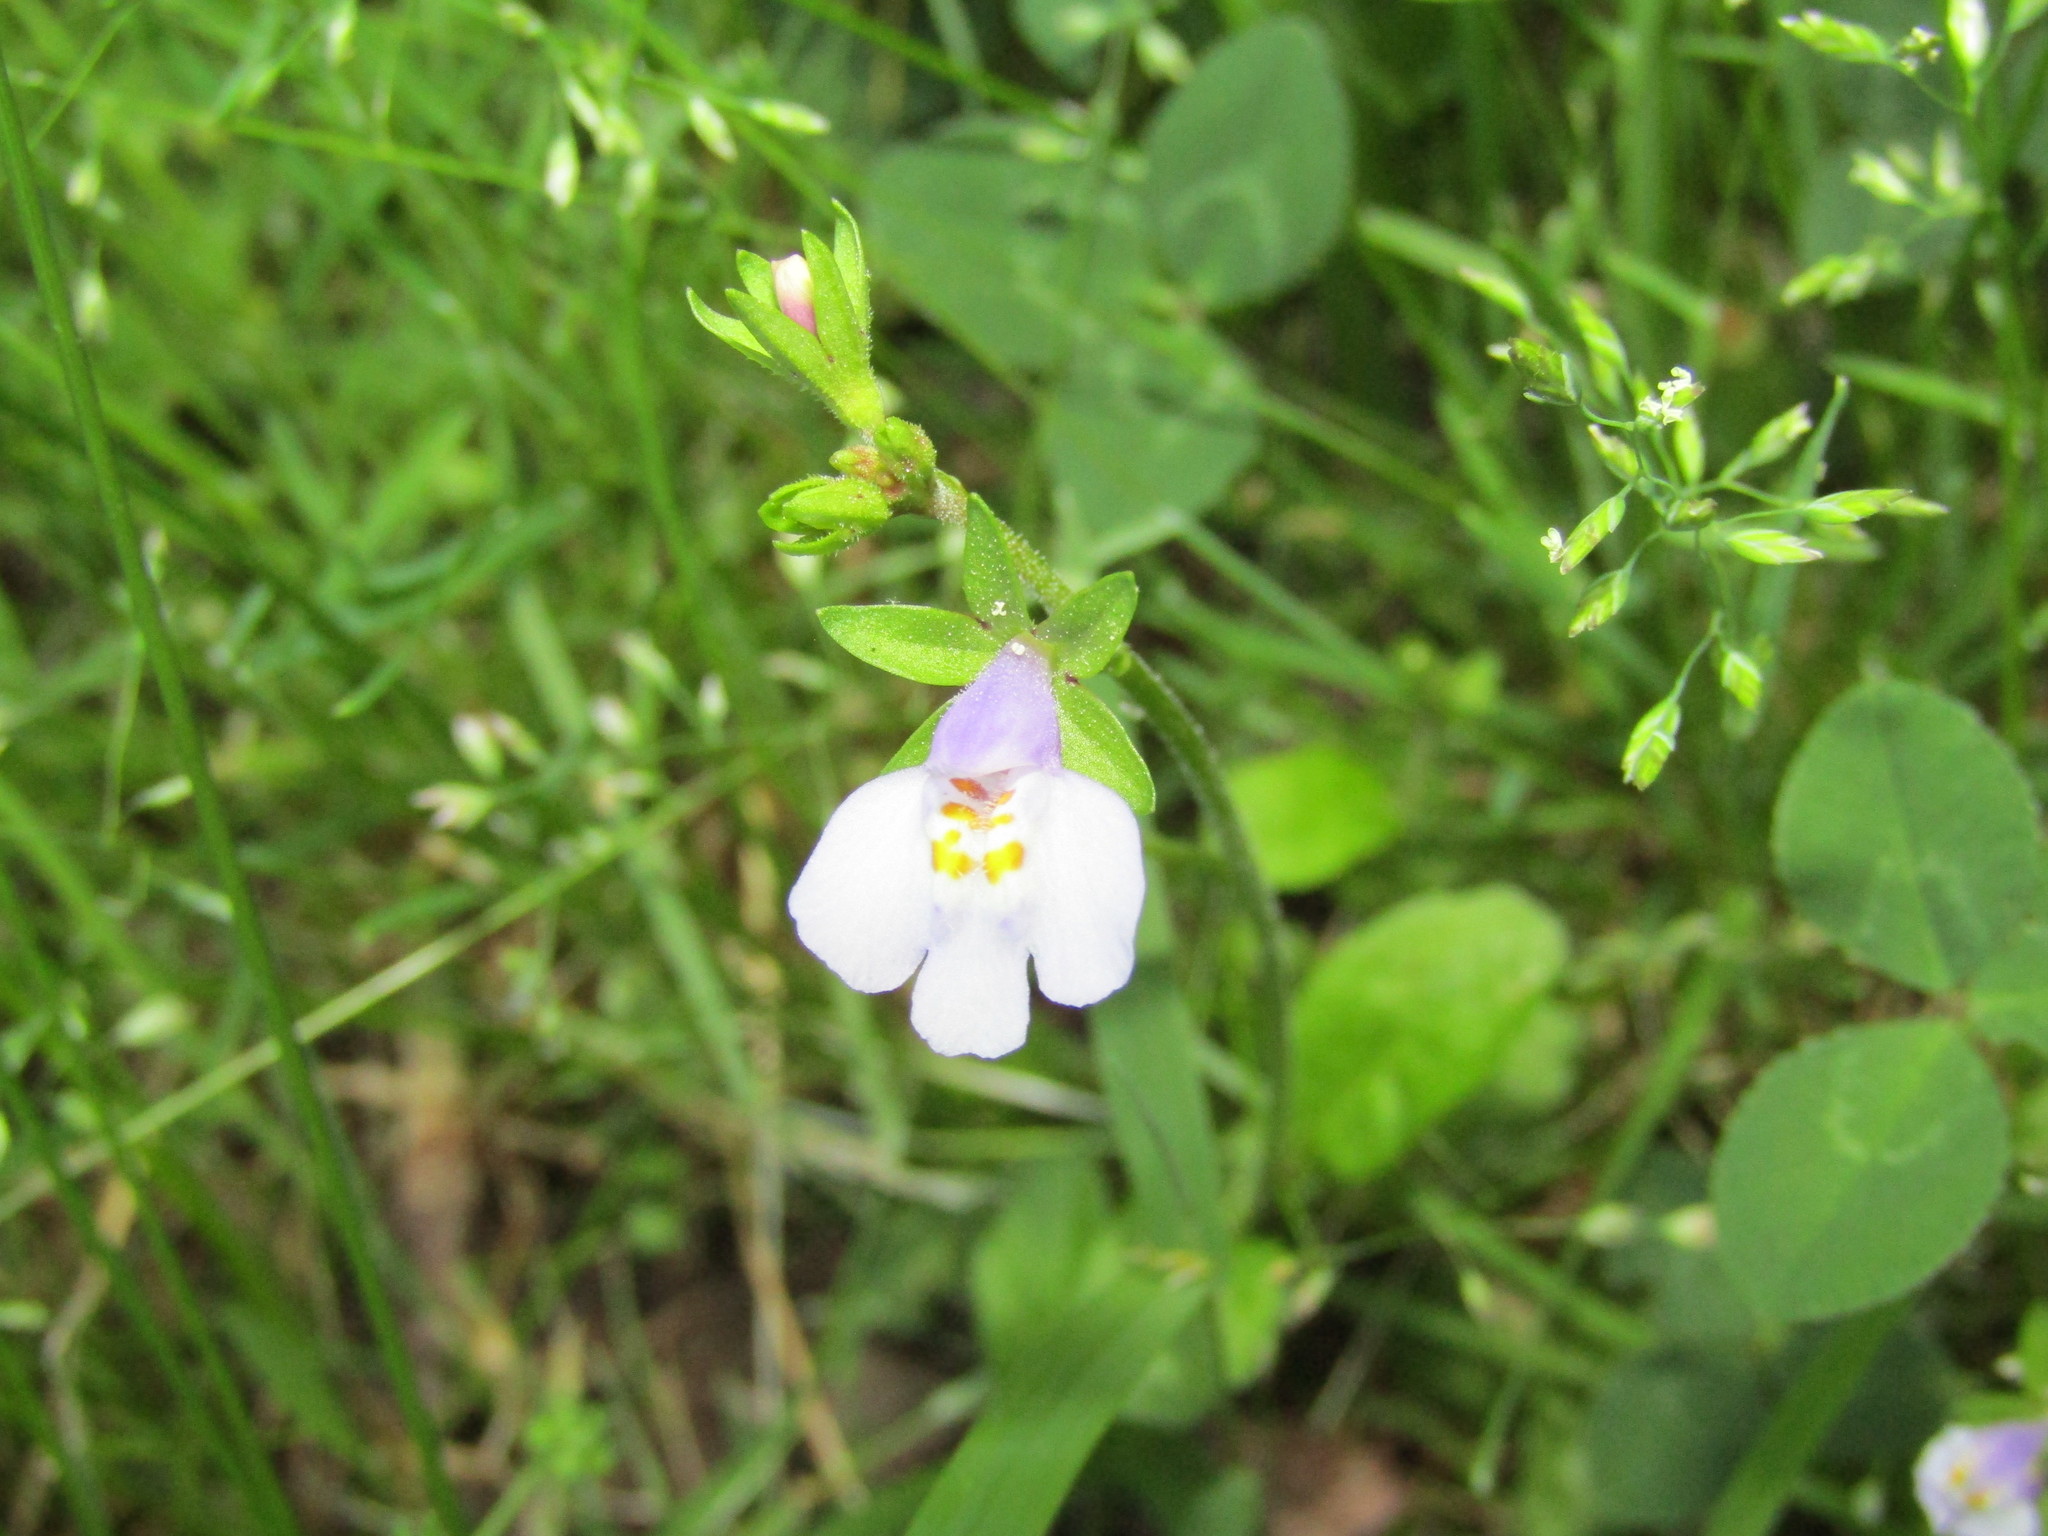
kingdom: Plantae
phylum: Tracheophyta
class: Magnoliopsida
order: Lamiales
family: Mazaceae
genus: Mazus
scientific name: Mazus pumilus
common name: Japanese mazus
